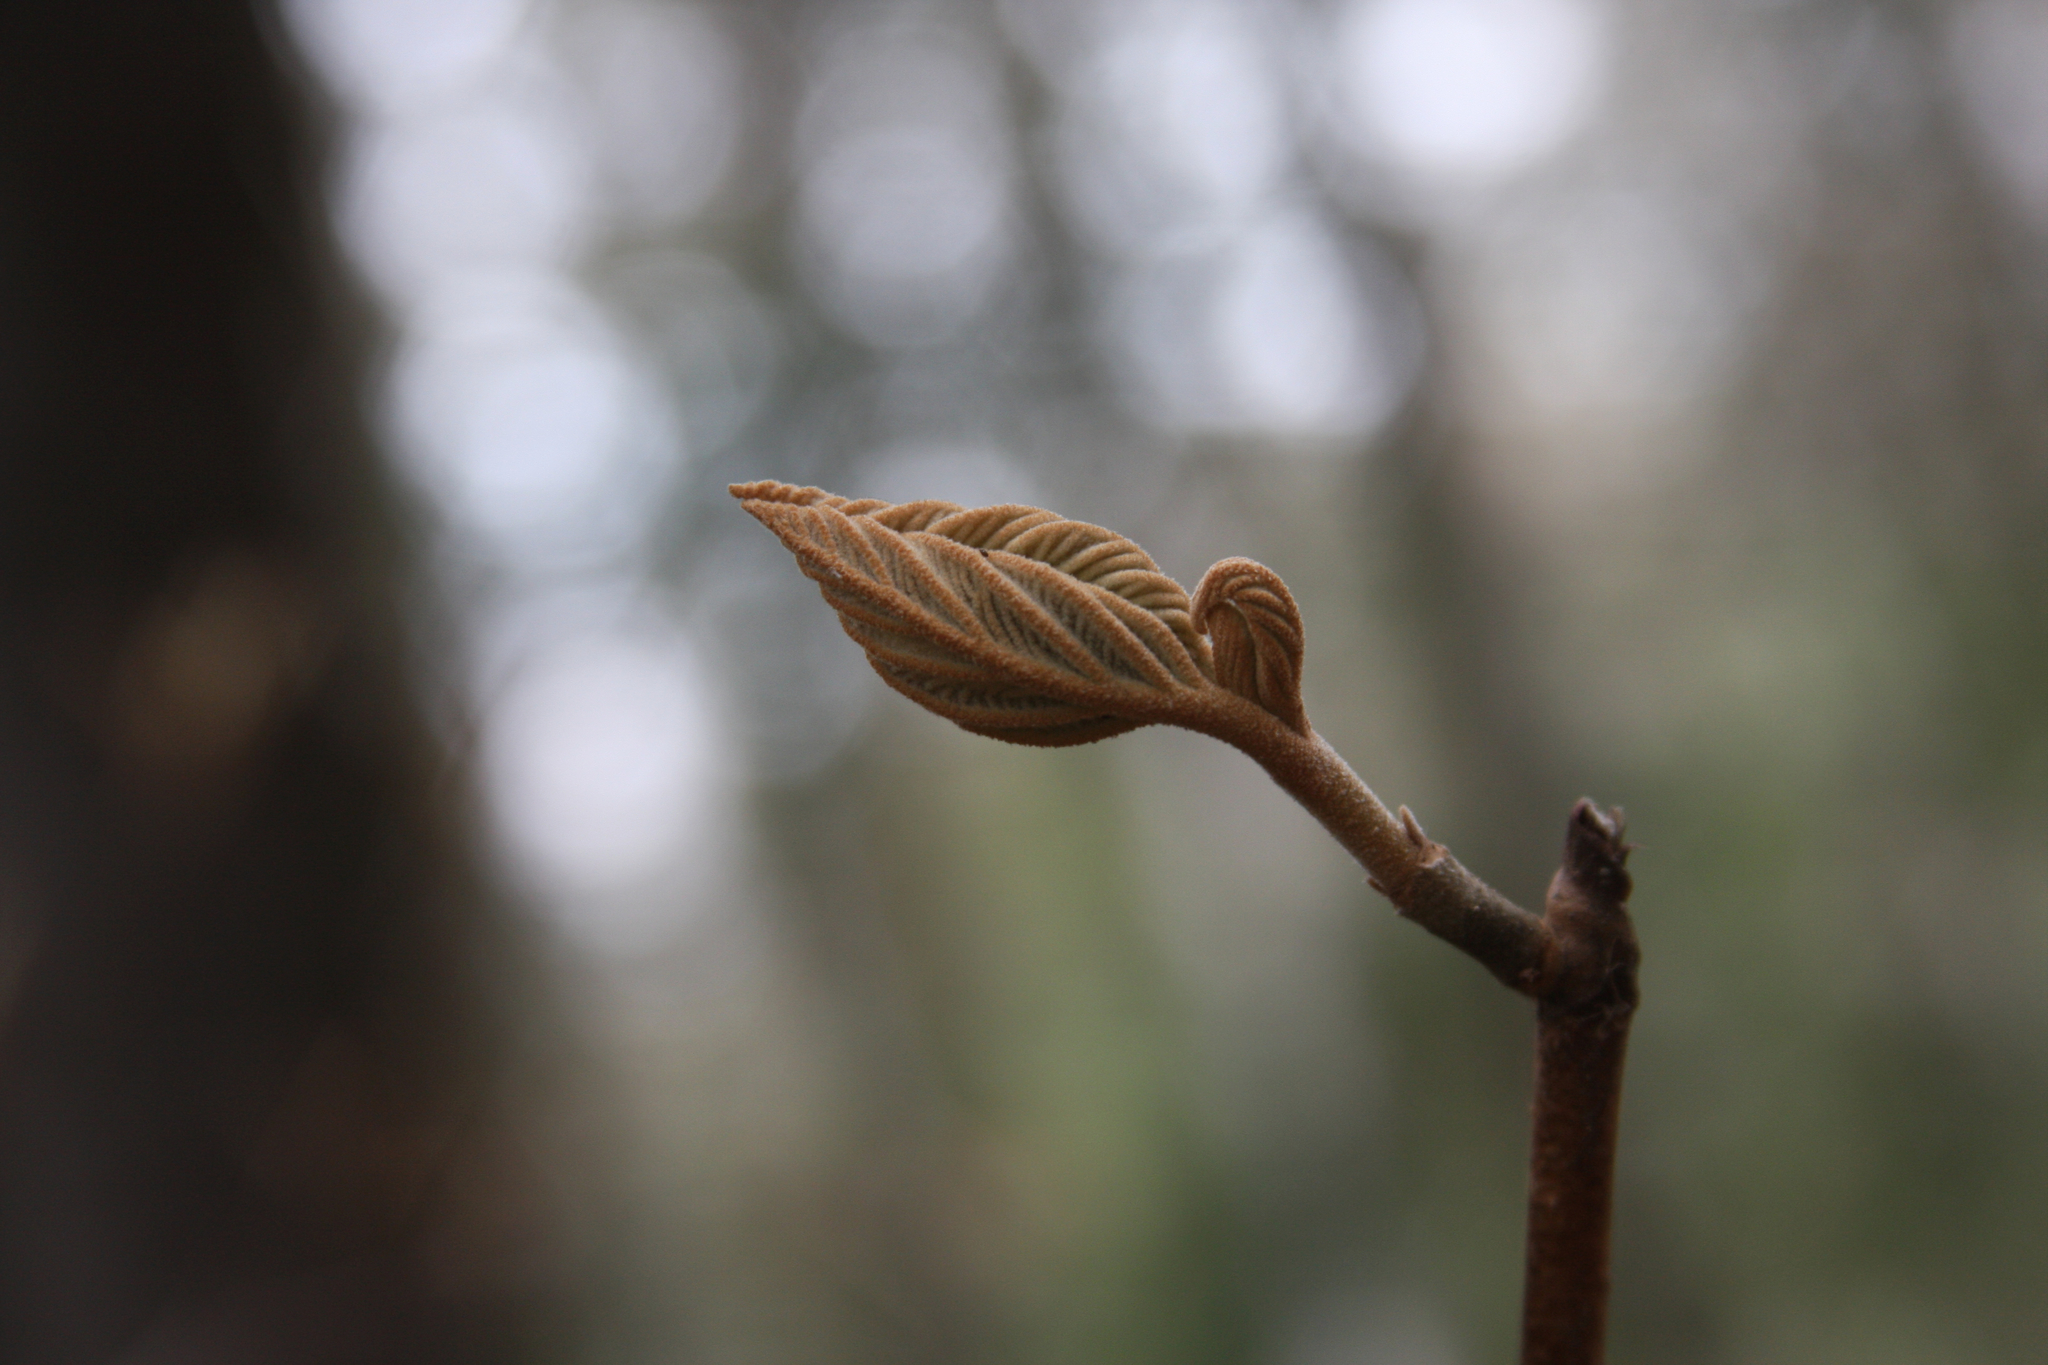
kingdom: Plantae
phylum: Tracheophyta
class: Magnoliopsida
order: Dipsacales
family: Viburnaceae
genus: Viburnum
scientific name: Viburnum lantanoides
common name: Hobblebush
